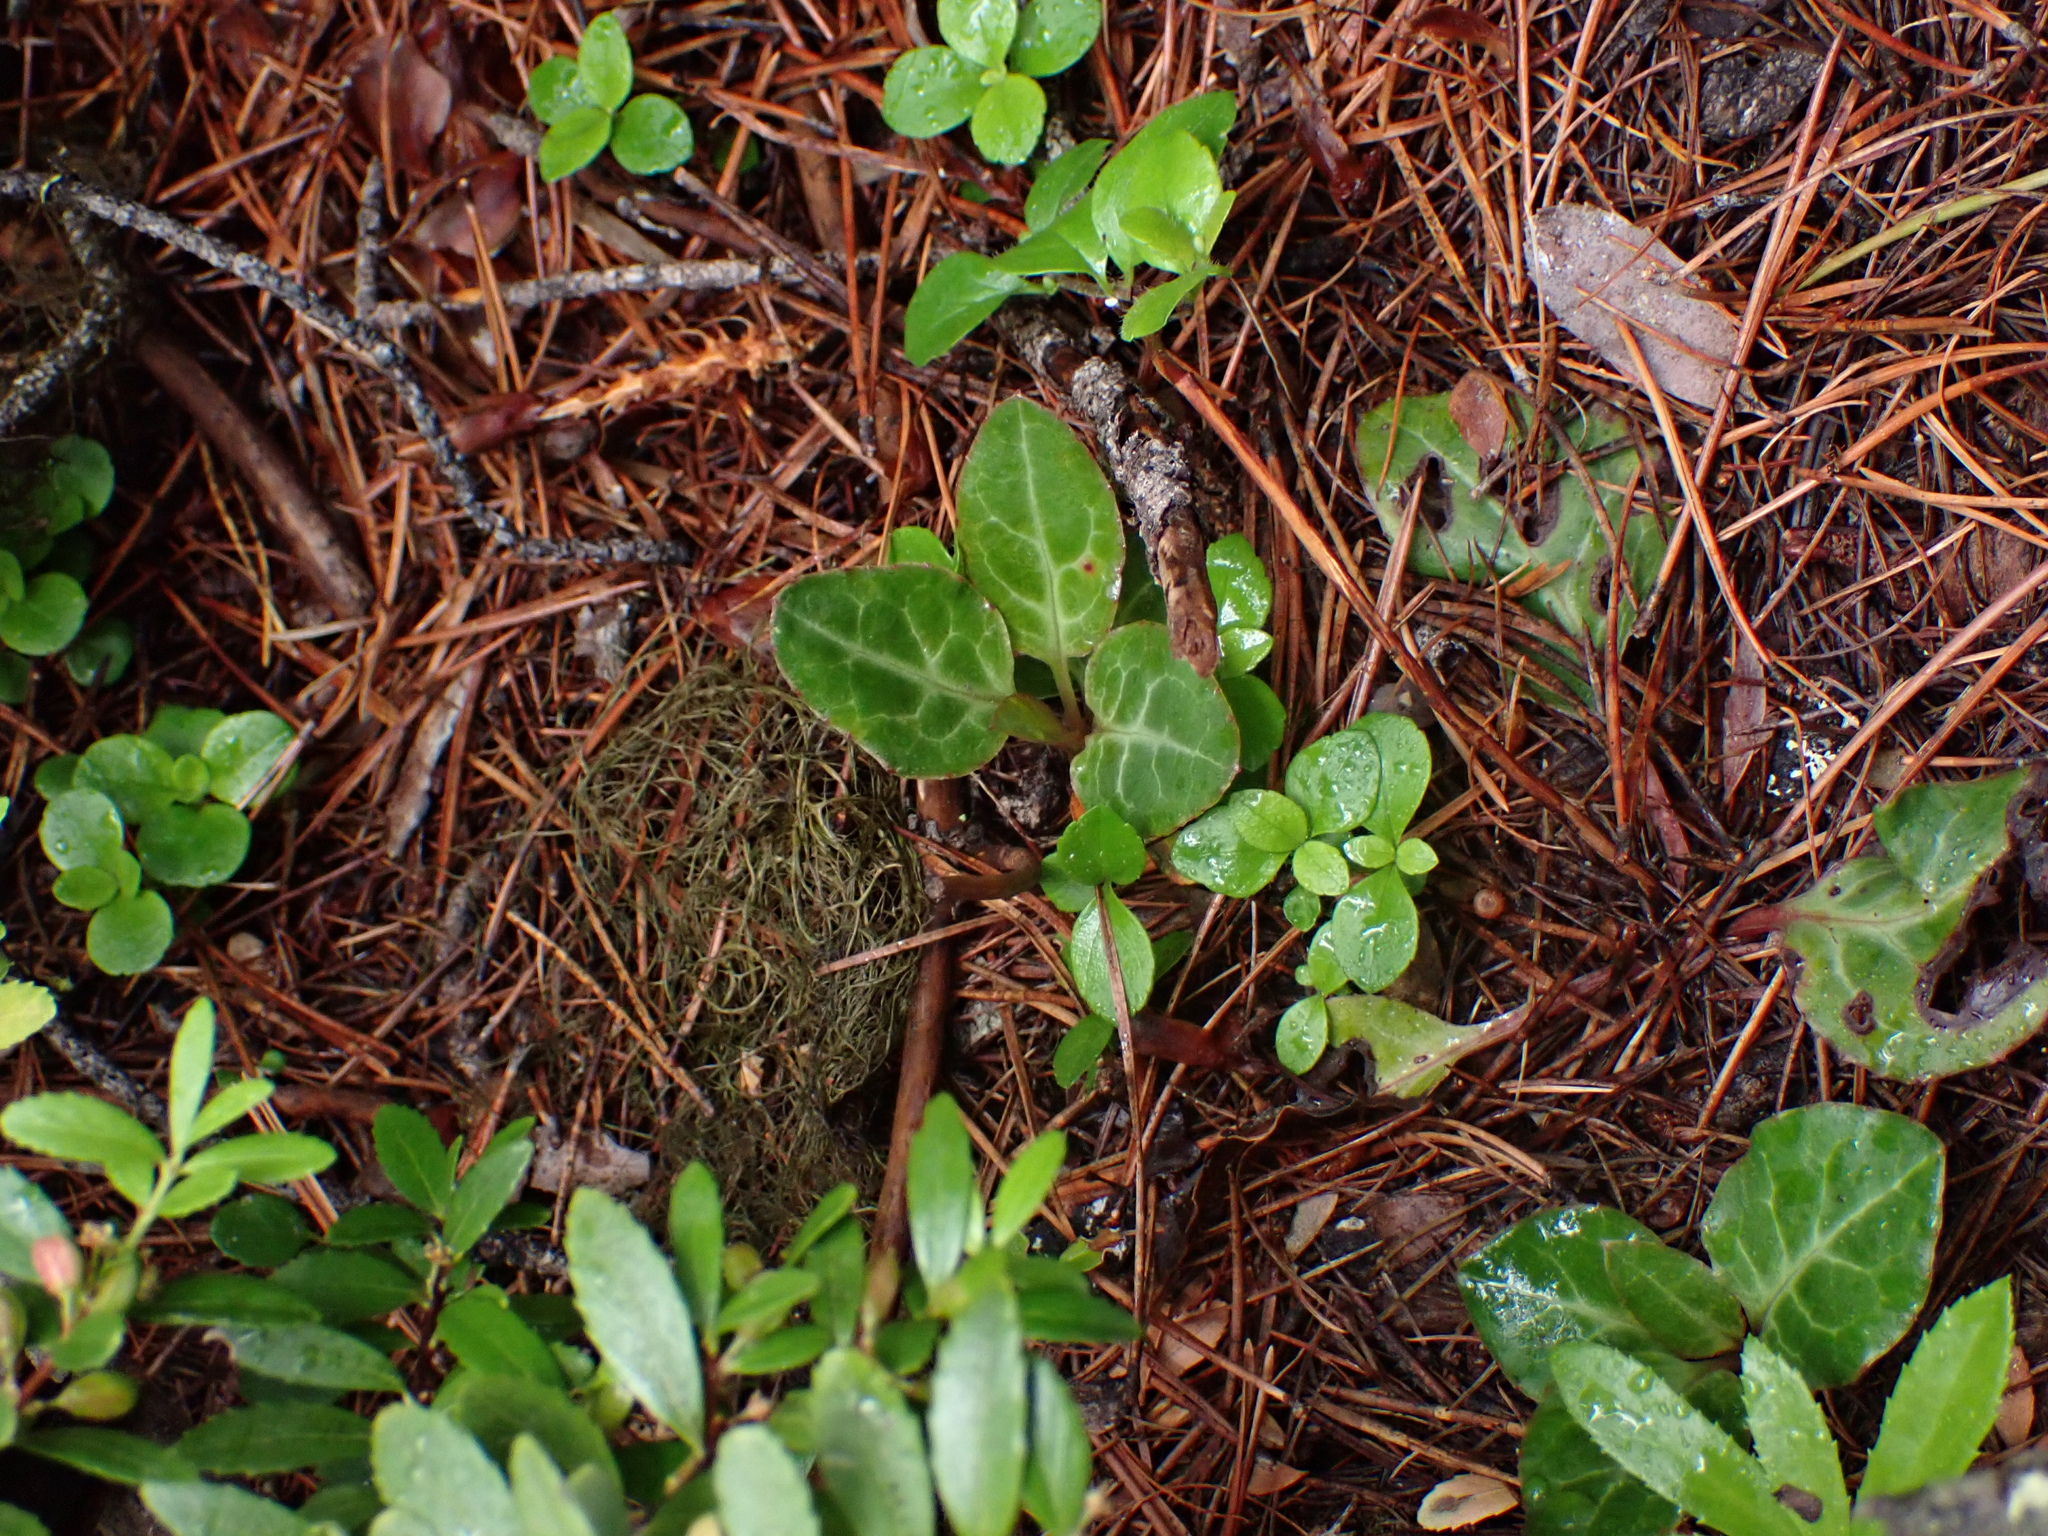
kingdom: Plantae
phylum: Tracheophyta
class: Magnoliopsida
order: Ericales
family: Ericaceae
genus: Pyrola
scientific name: Pyrola picta
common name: White-vein wintergreen
